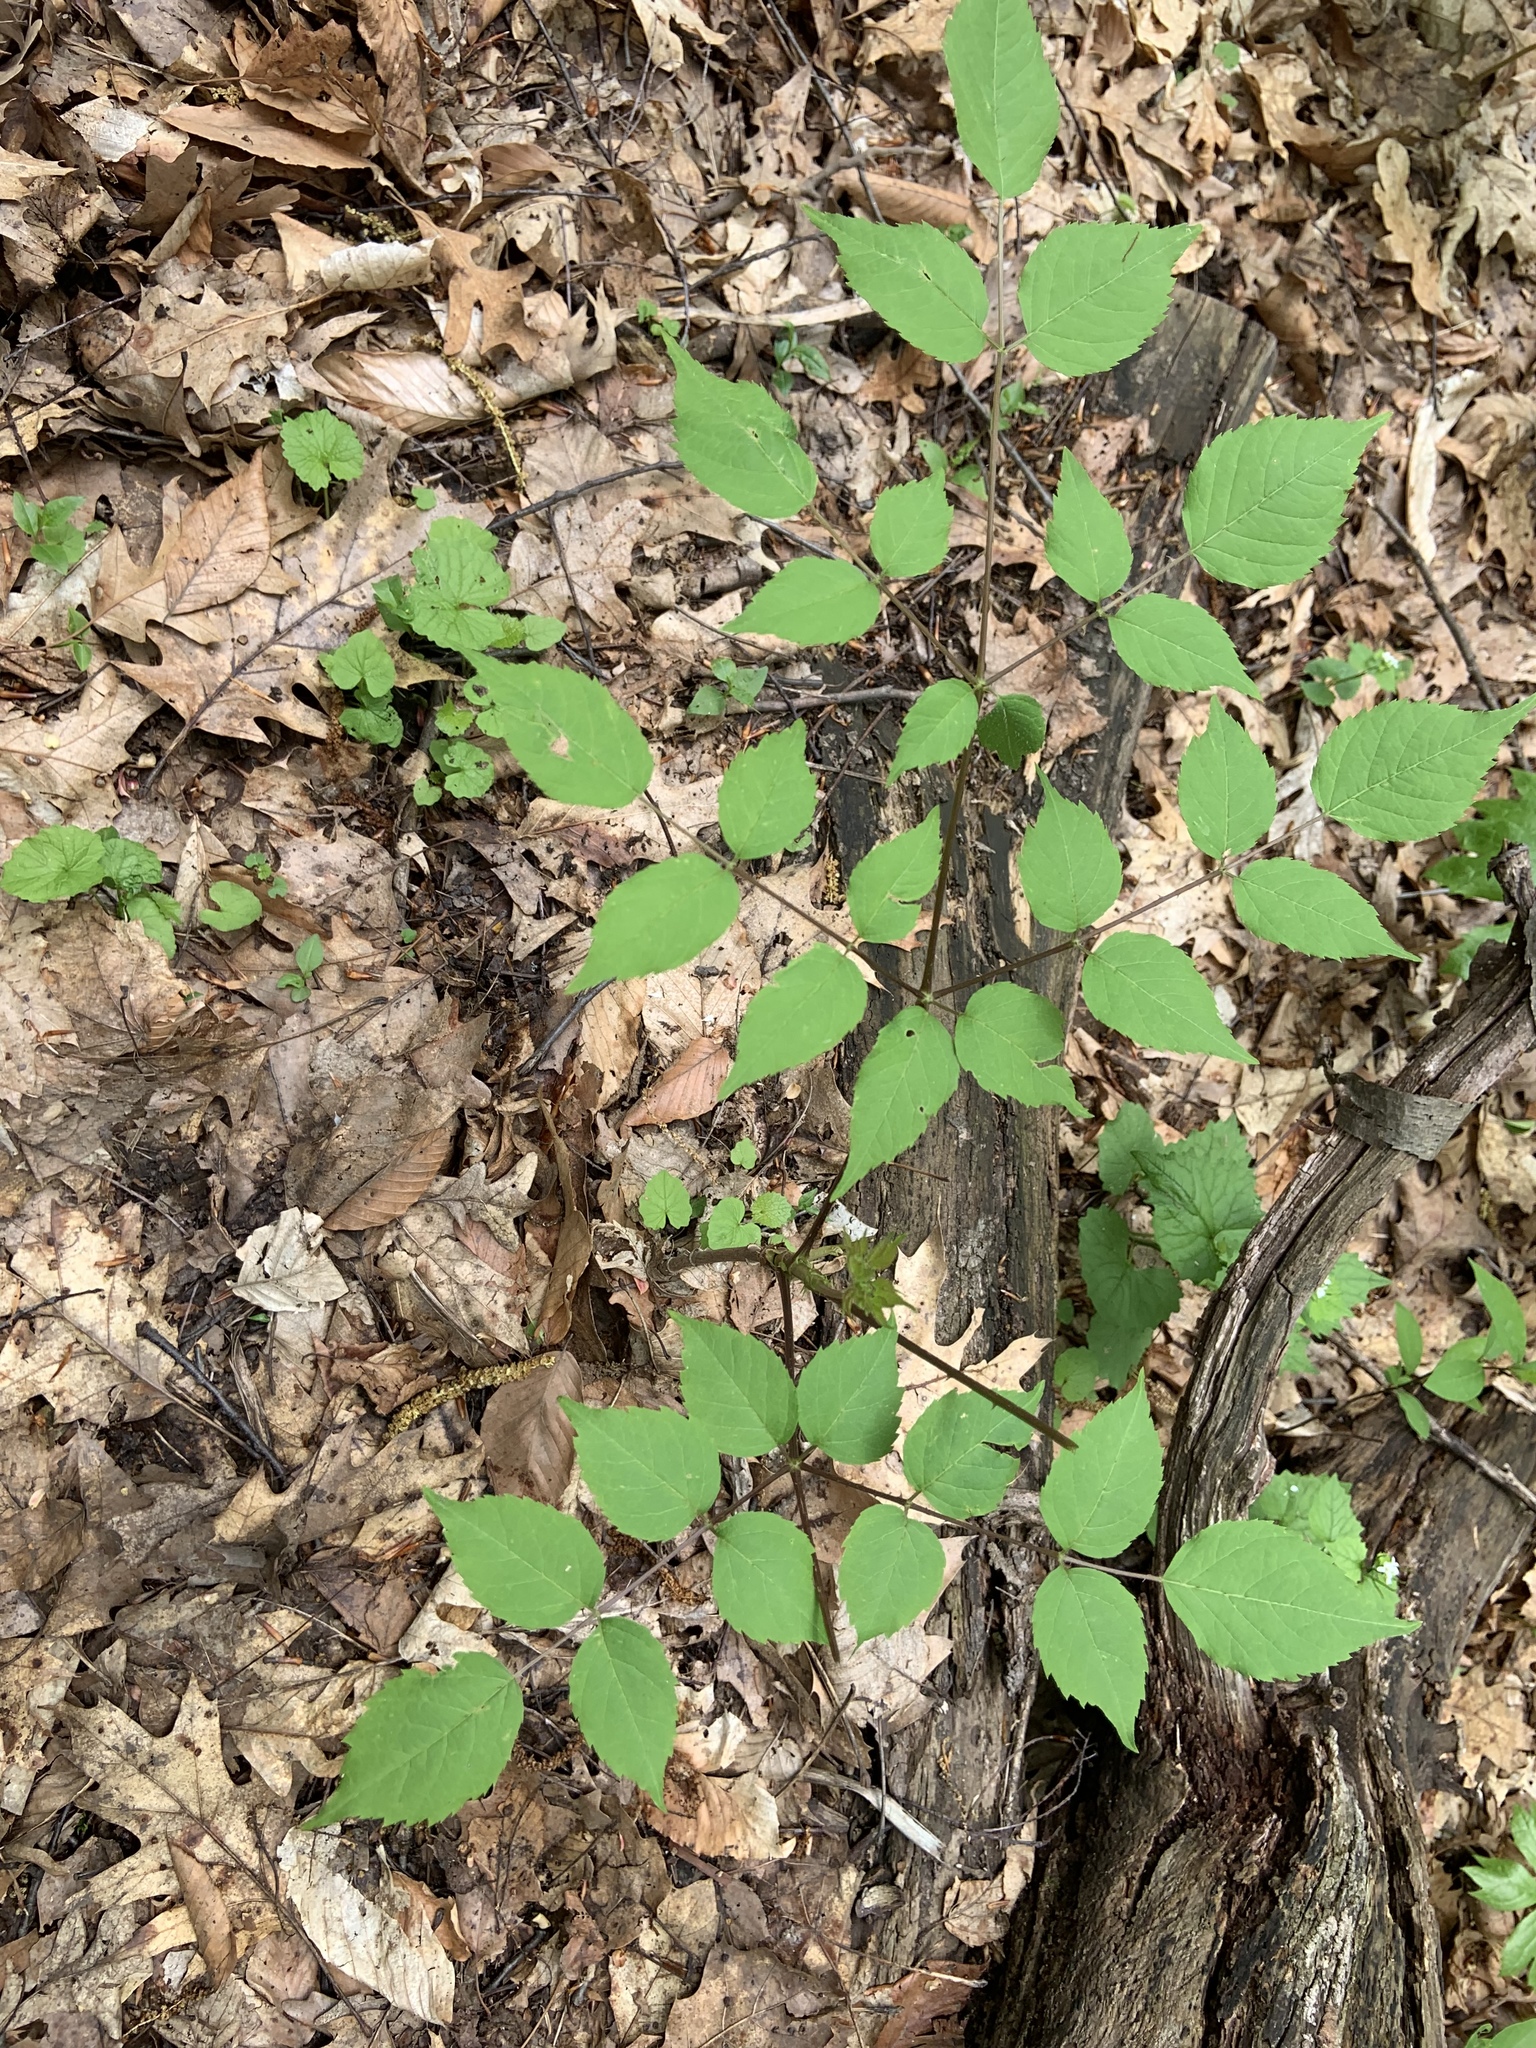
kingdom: Plantae
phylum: Tracheophyta
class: Magnoliopsida
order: Apiales
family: Araliaceae
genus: Aralia
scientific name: Aralia spinosa
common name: Hercules'-club
